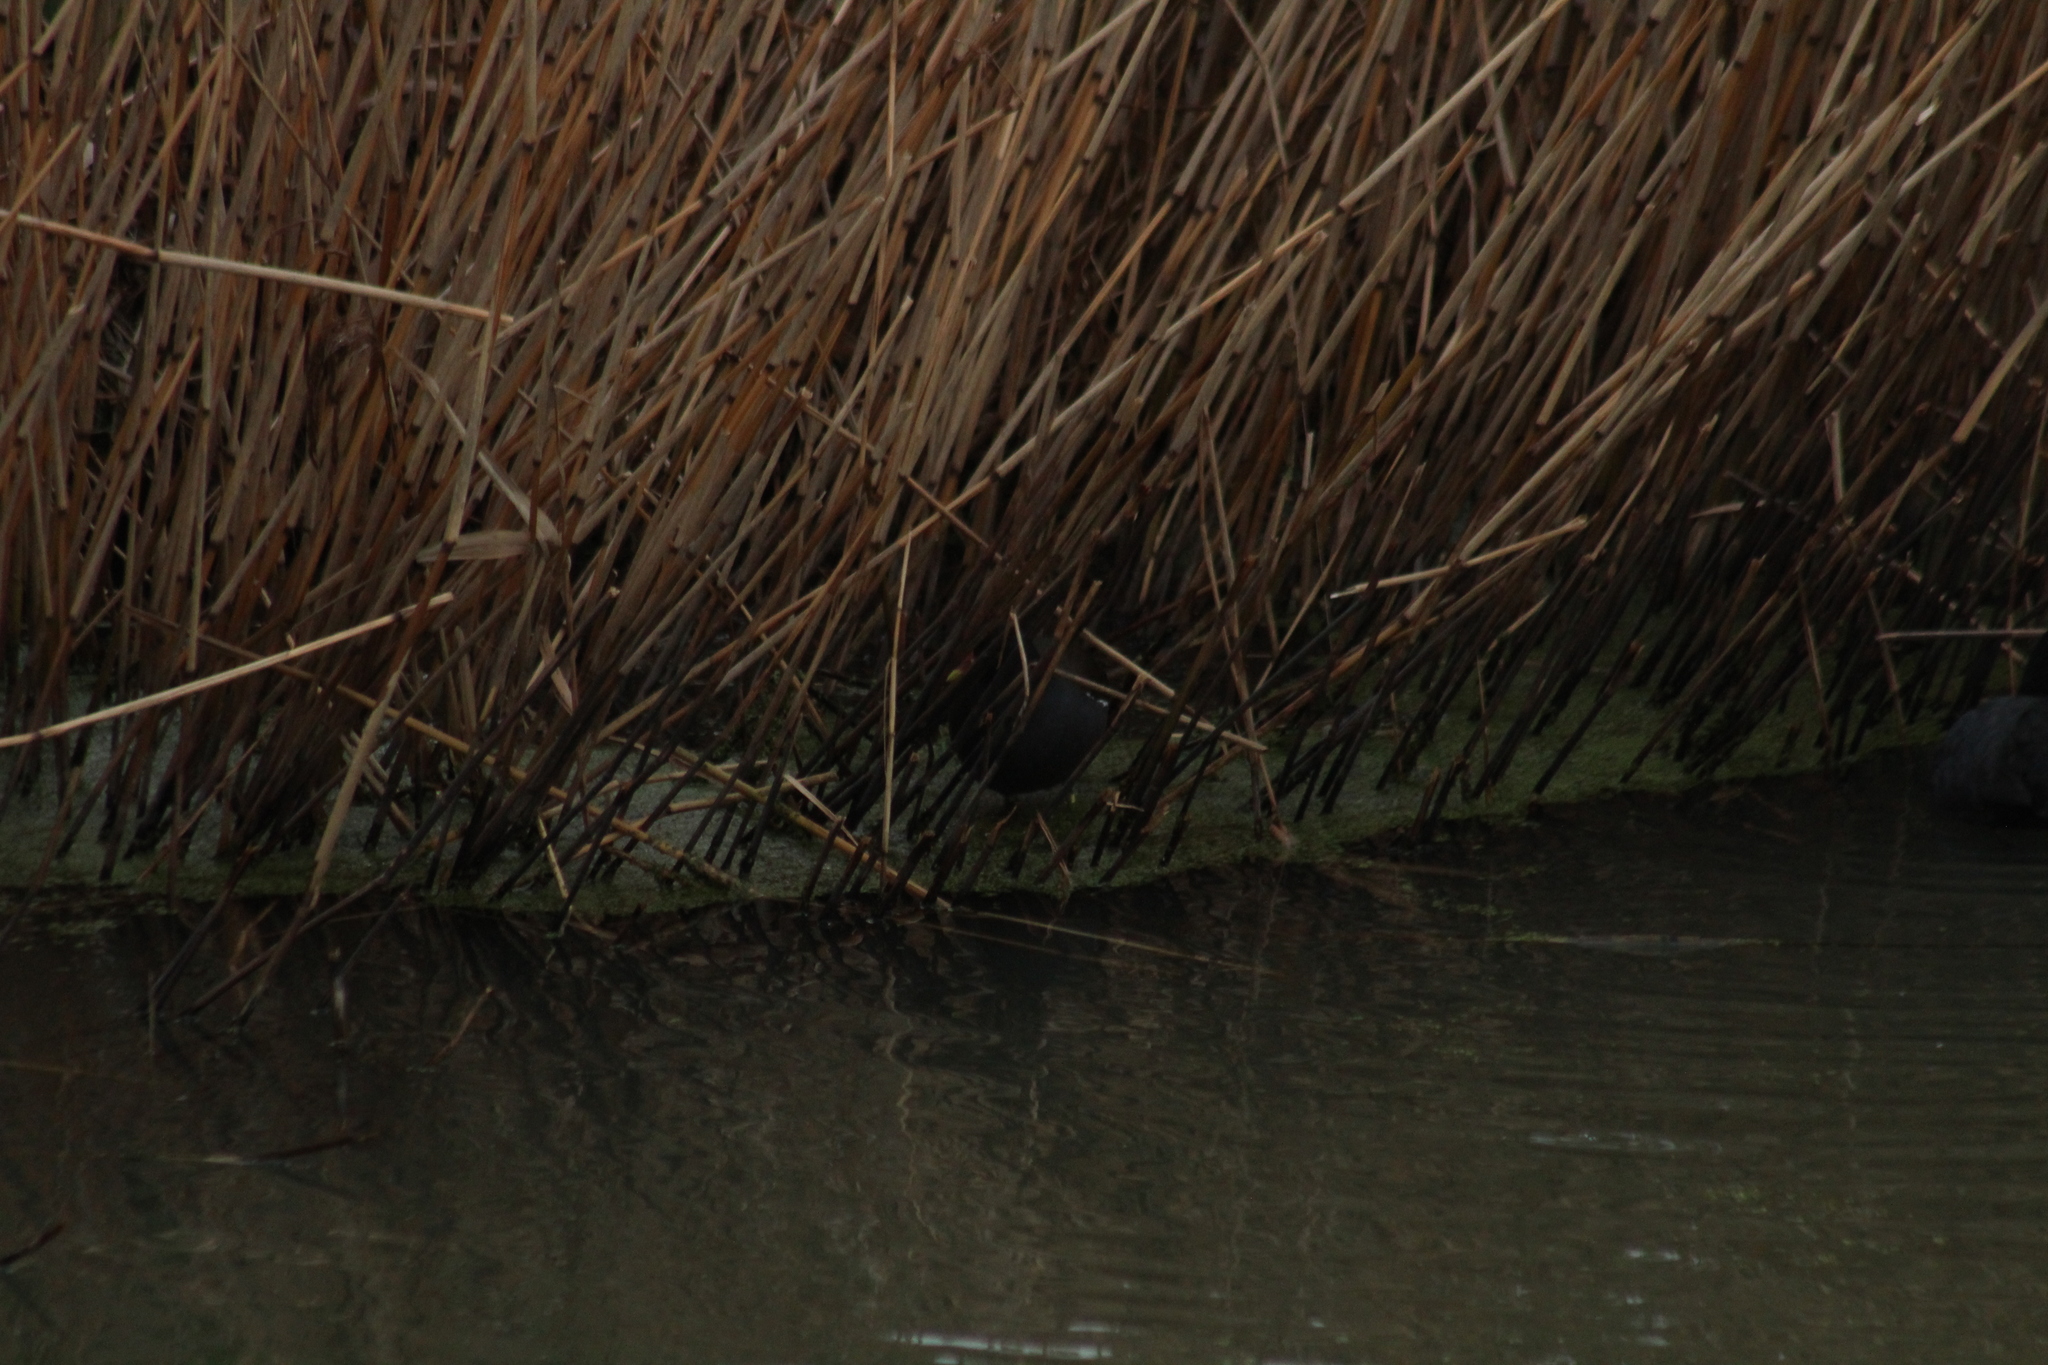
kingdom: Animalia
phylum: Chordata
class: Aves
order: Gruiformes
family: Rallidae
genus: Gallinula
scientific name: Gallinula chloropus
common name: Common moorhen
